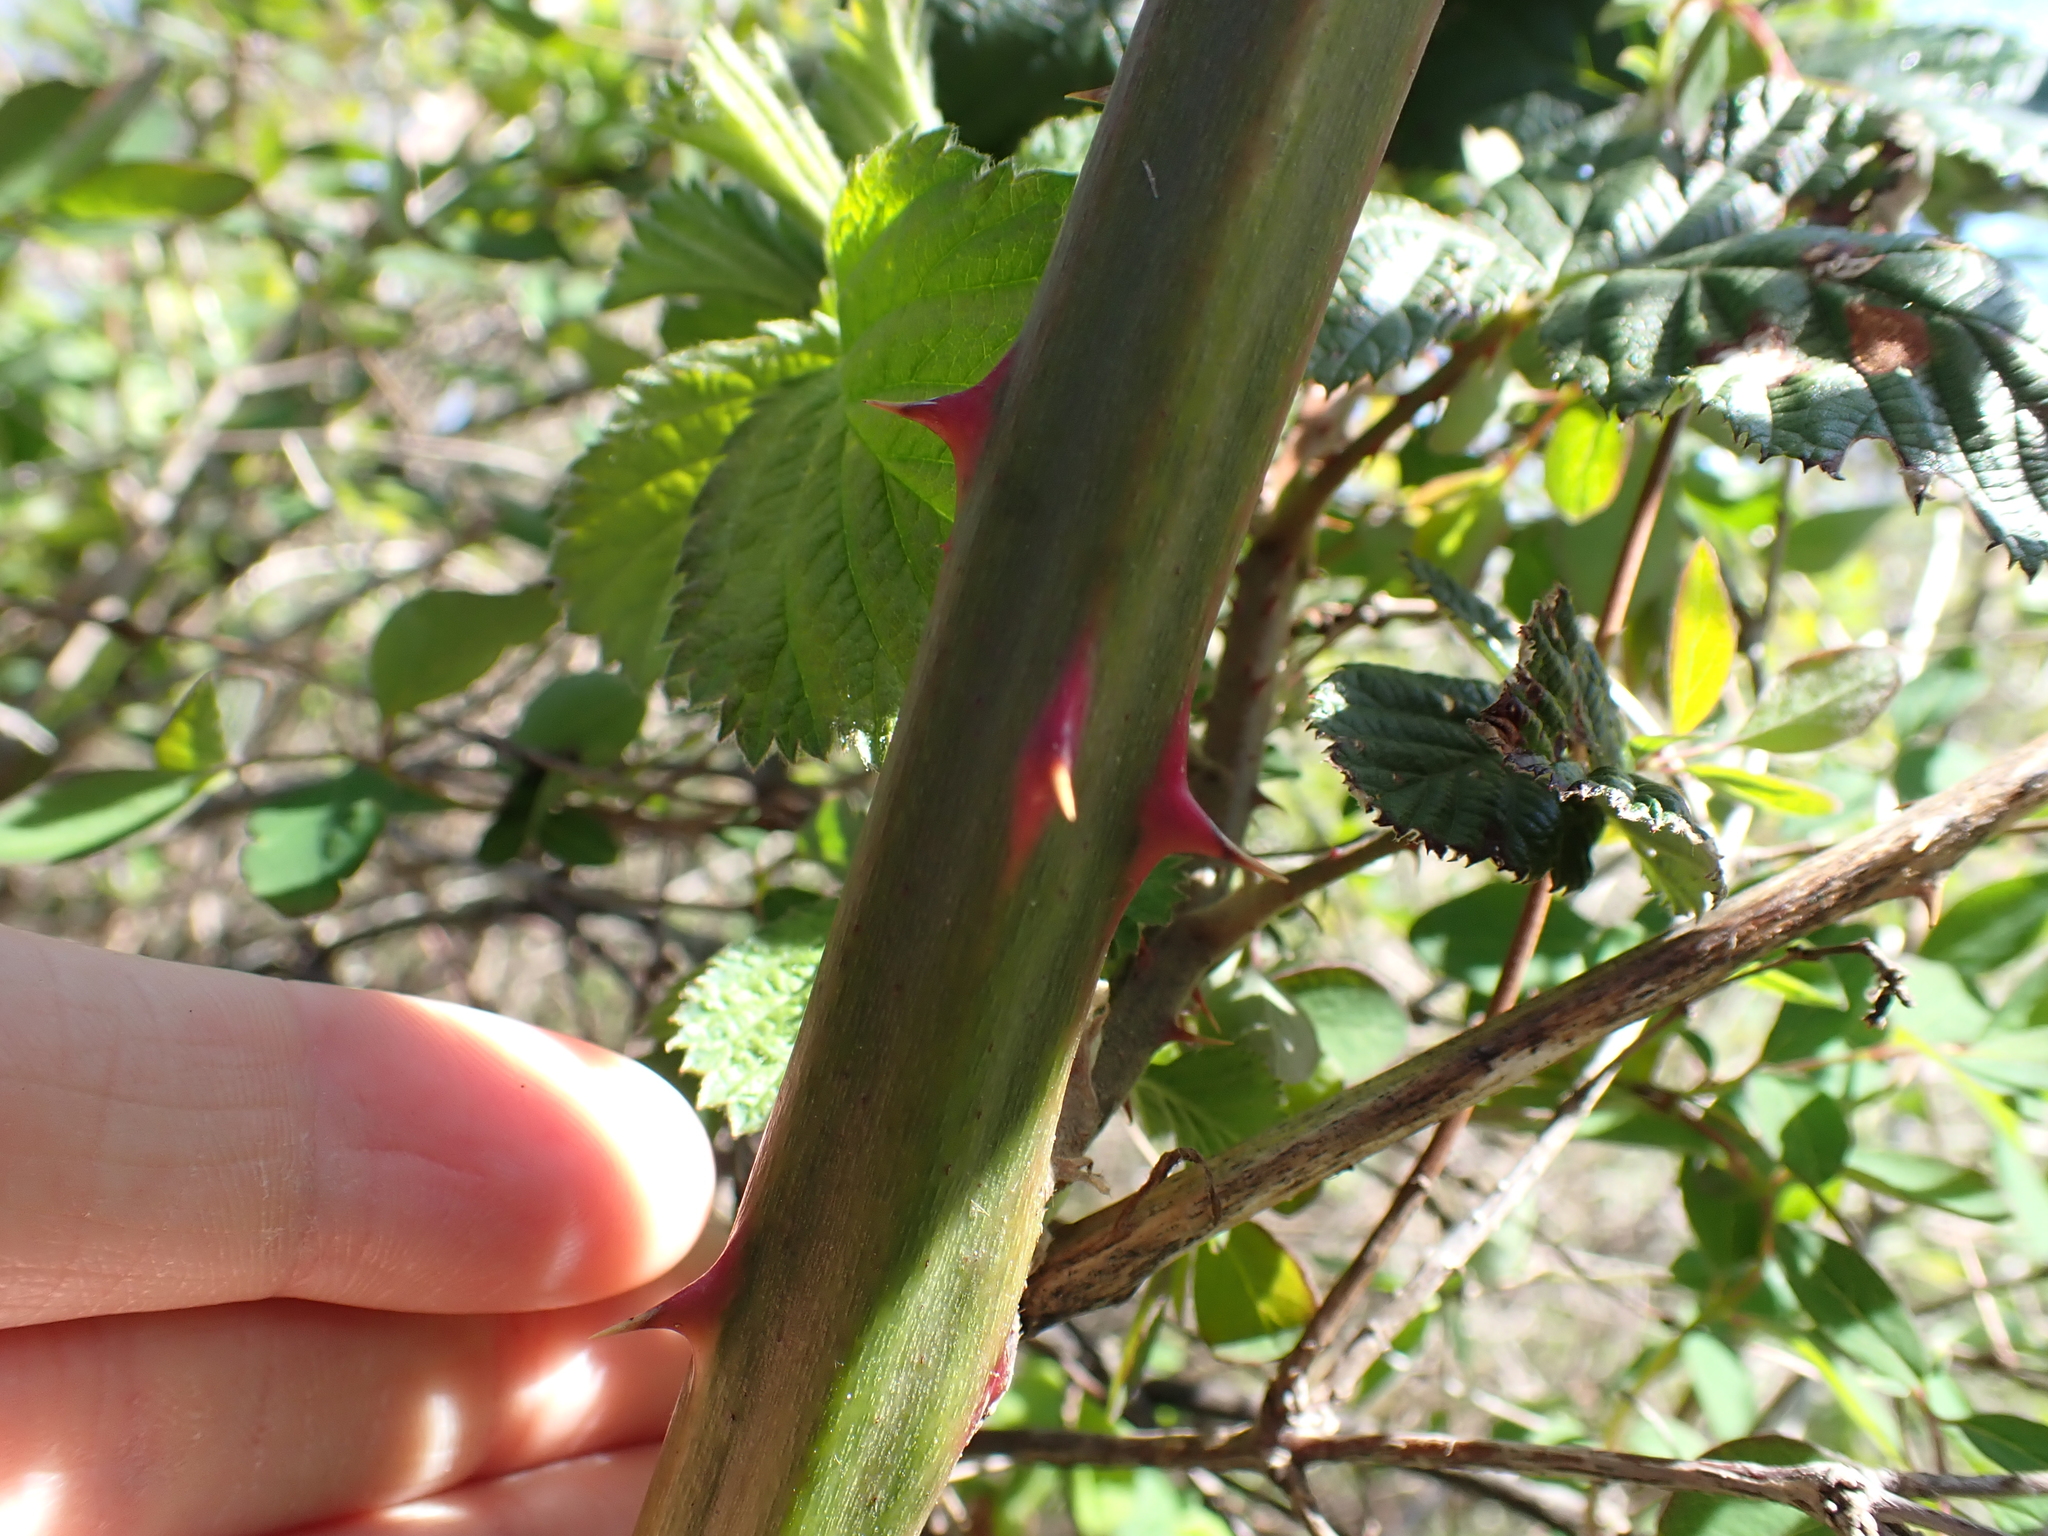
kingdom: Plantae
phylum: Tracheophyta
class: Magnoliopsida
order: Rosales
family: Rosaceae
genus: Rubus
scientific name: Rubus bifrons
